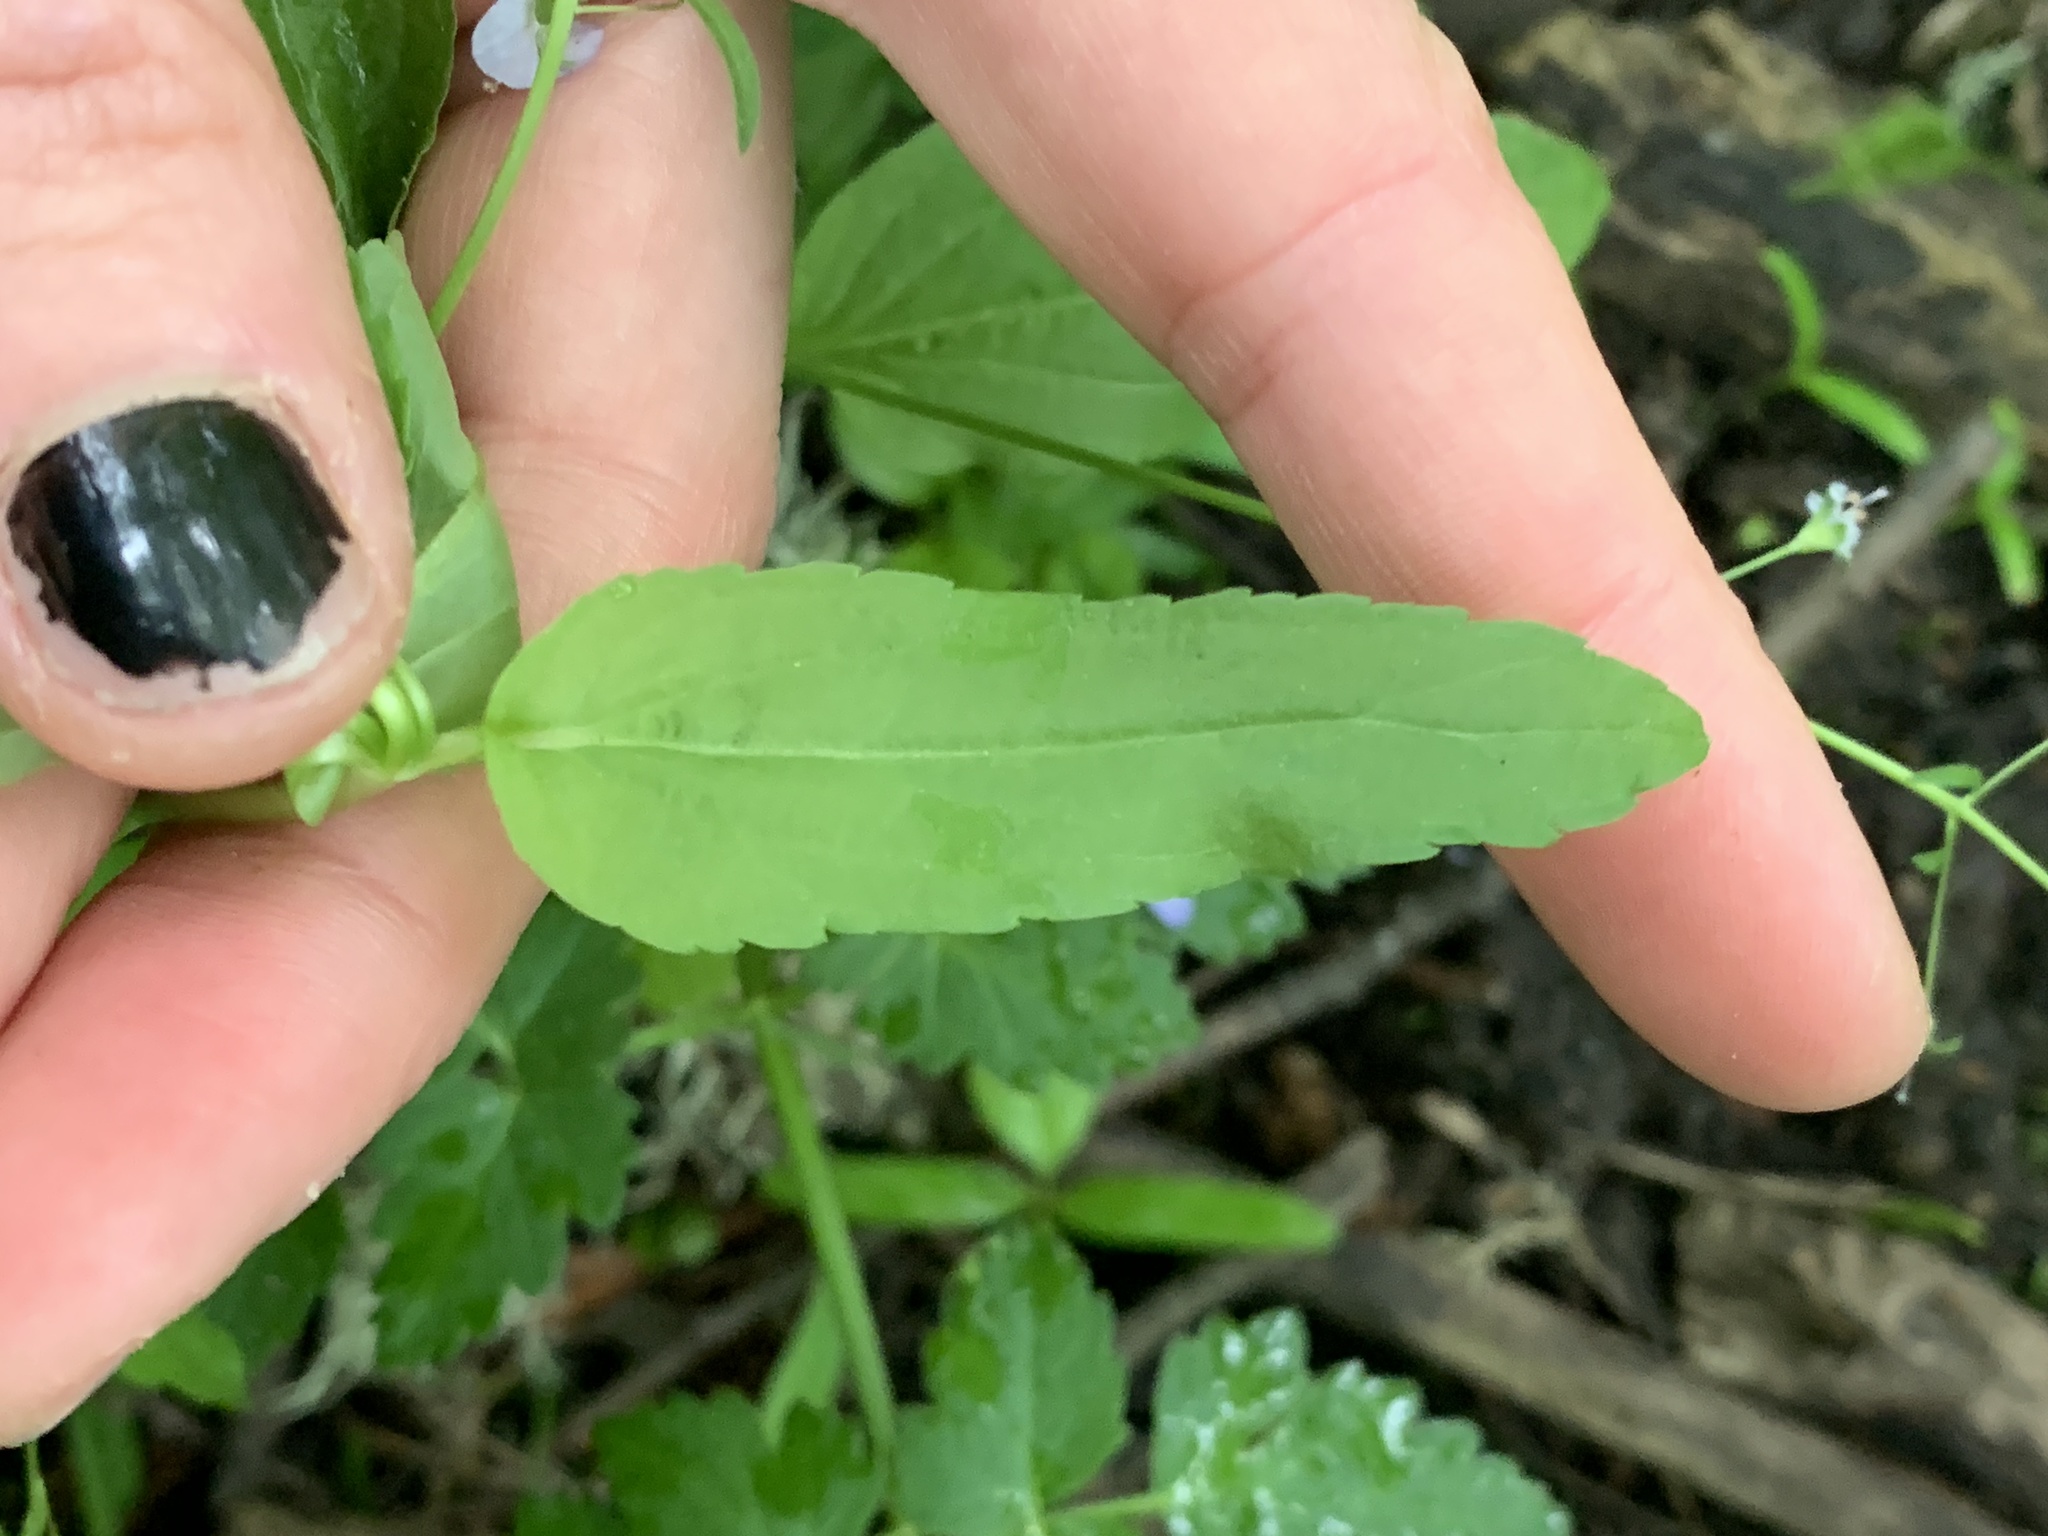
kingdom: Plantae
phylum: Tracheophyta
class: Magnoliopsida
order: Lamiales
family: Plantaginaceae
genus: Veronica
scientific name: Veronica americana
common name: American brooklime
